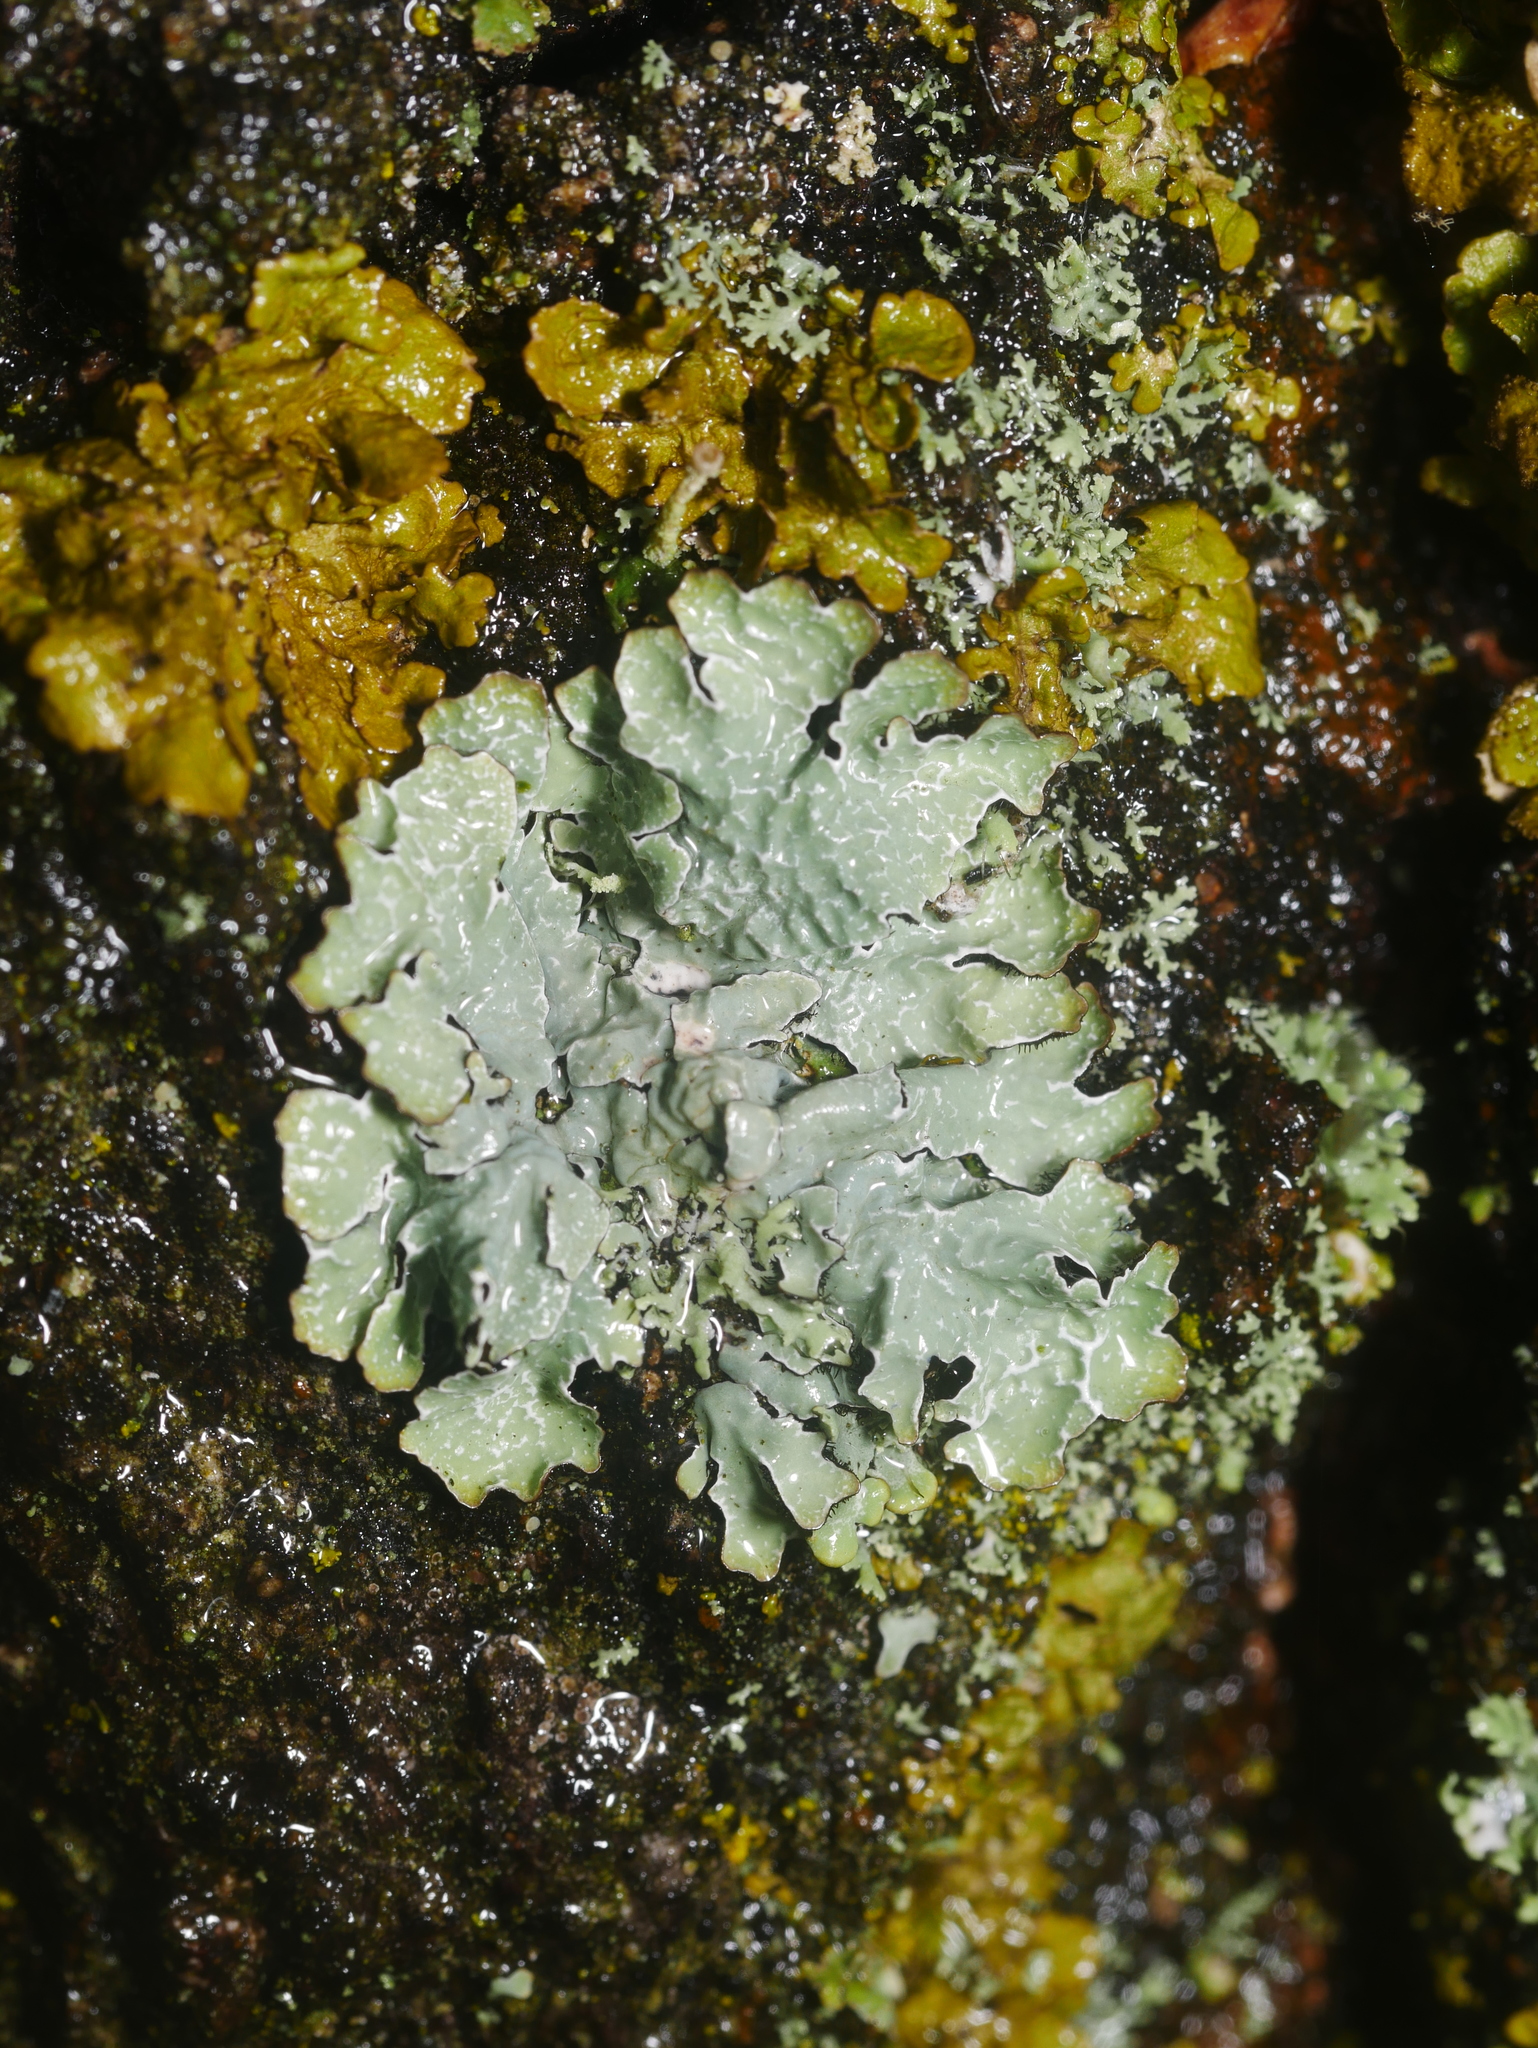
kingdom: Fungi
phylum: Ascomycota
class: Lecanoromycetes
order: Lecanorales
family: Parmeliaceae
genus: Parmelia
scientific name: Parmelia sulcata
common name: Netted shield lichen
